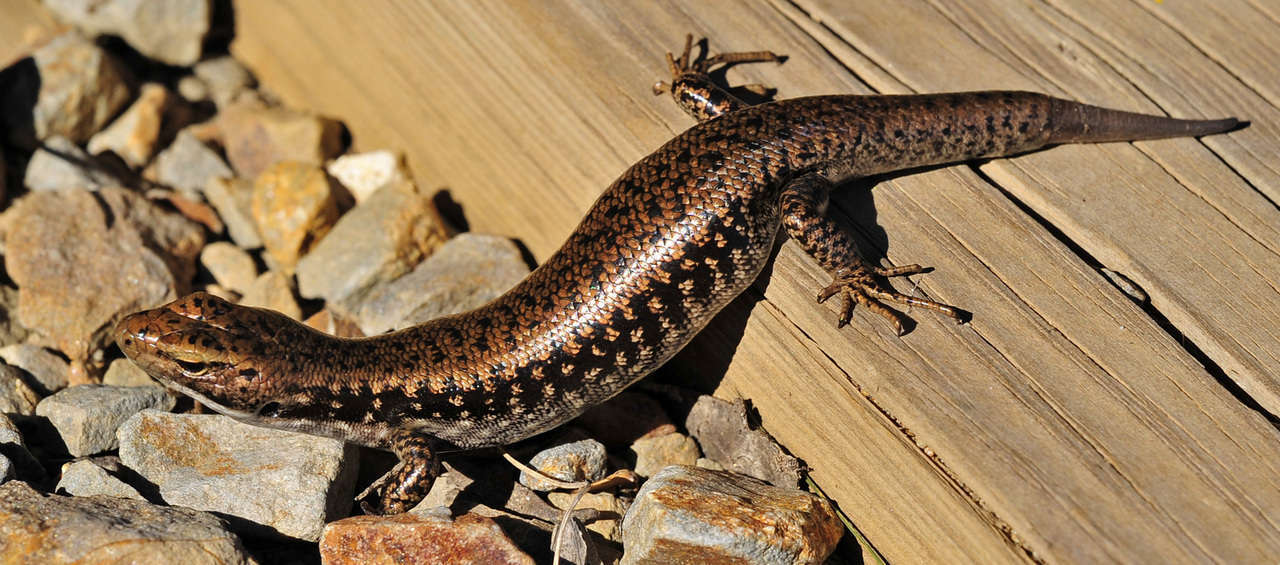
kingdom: Animalia
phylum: Chordata
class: Squamata
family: Scincidae
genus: Eulamprus
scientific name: Eulamprus tympanum
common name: Cool-temperate water-skink
